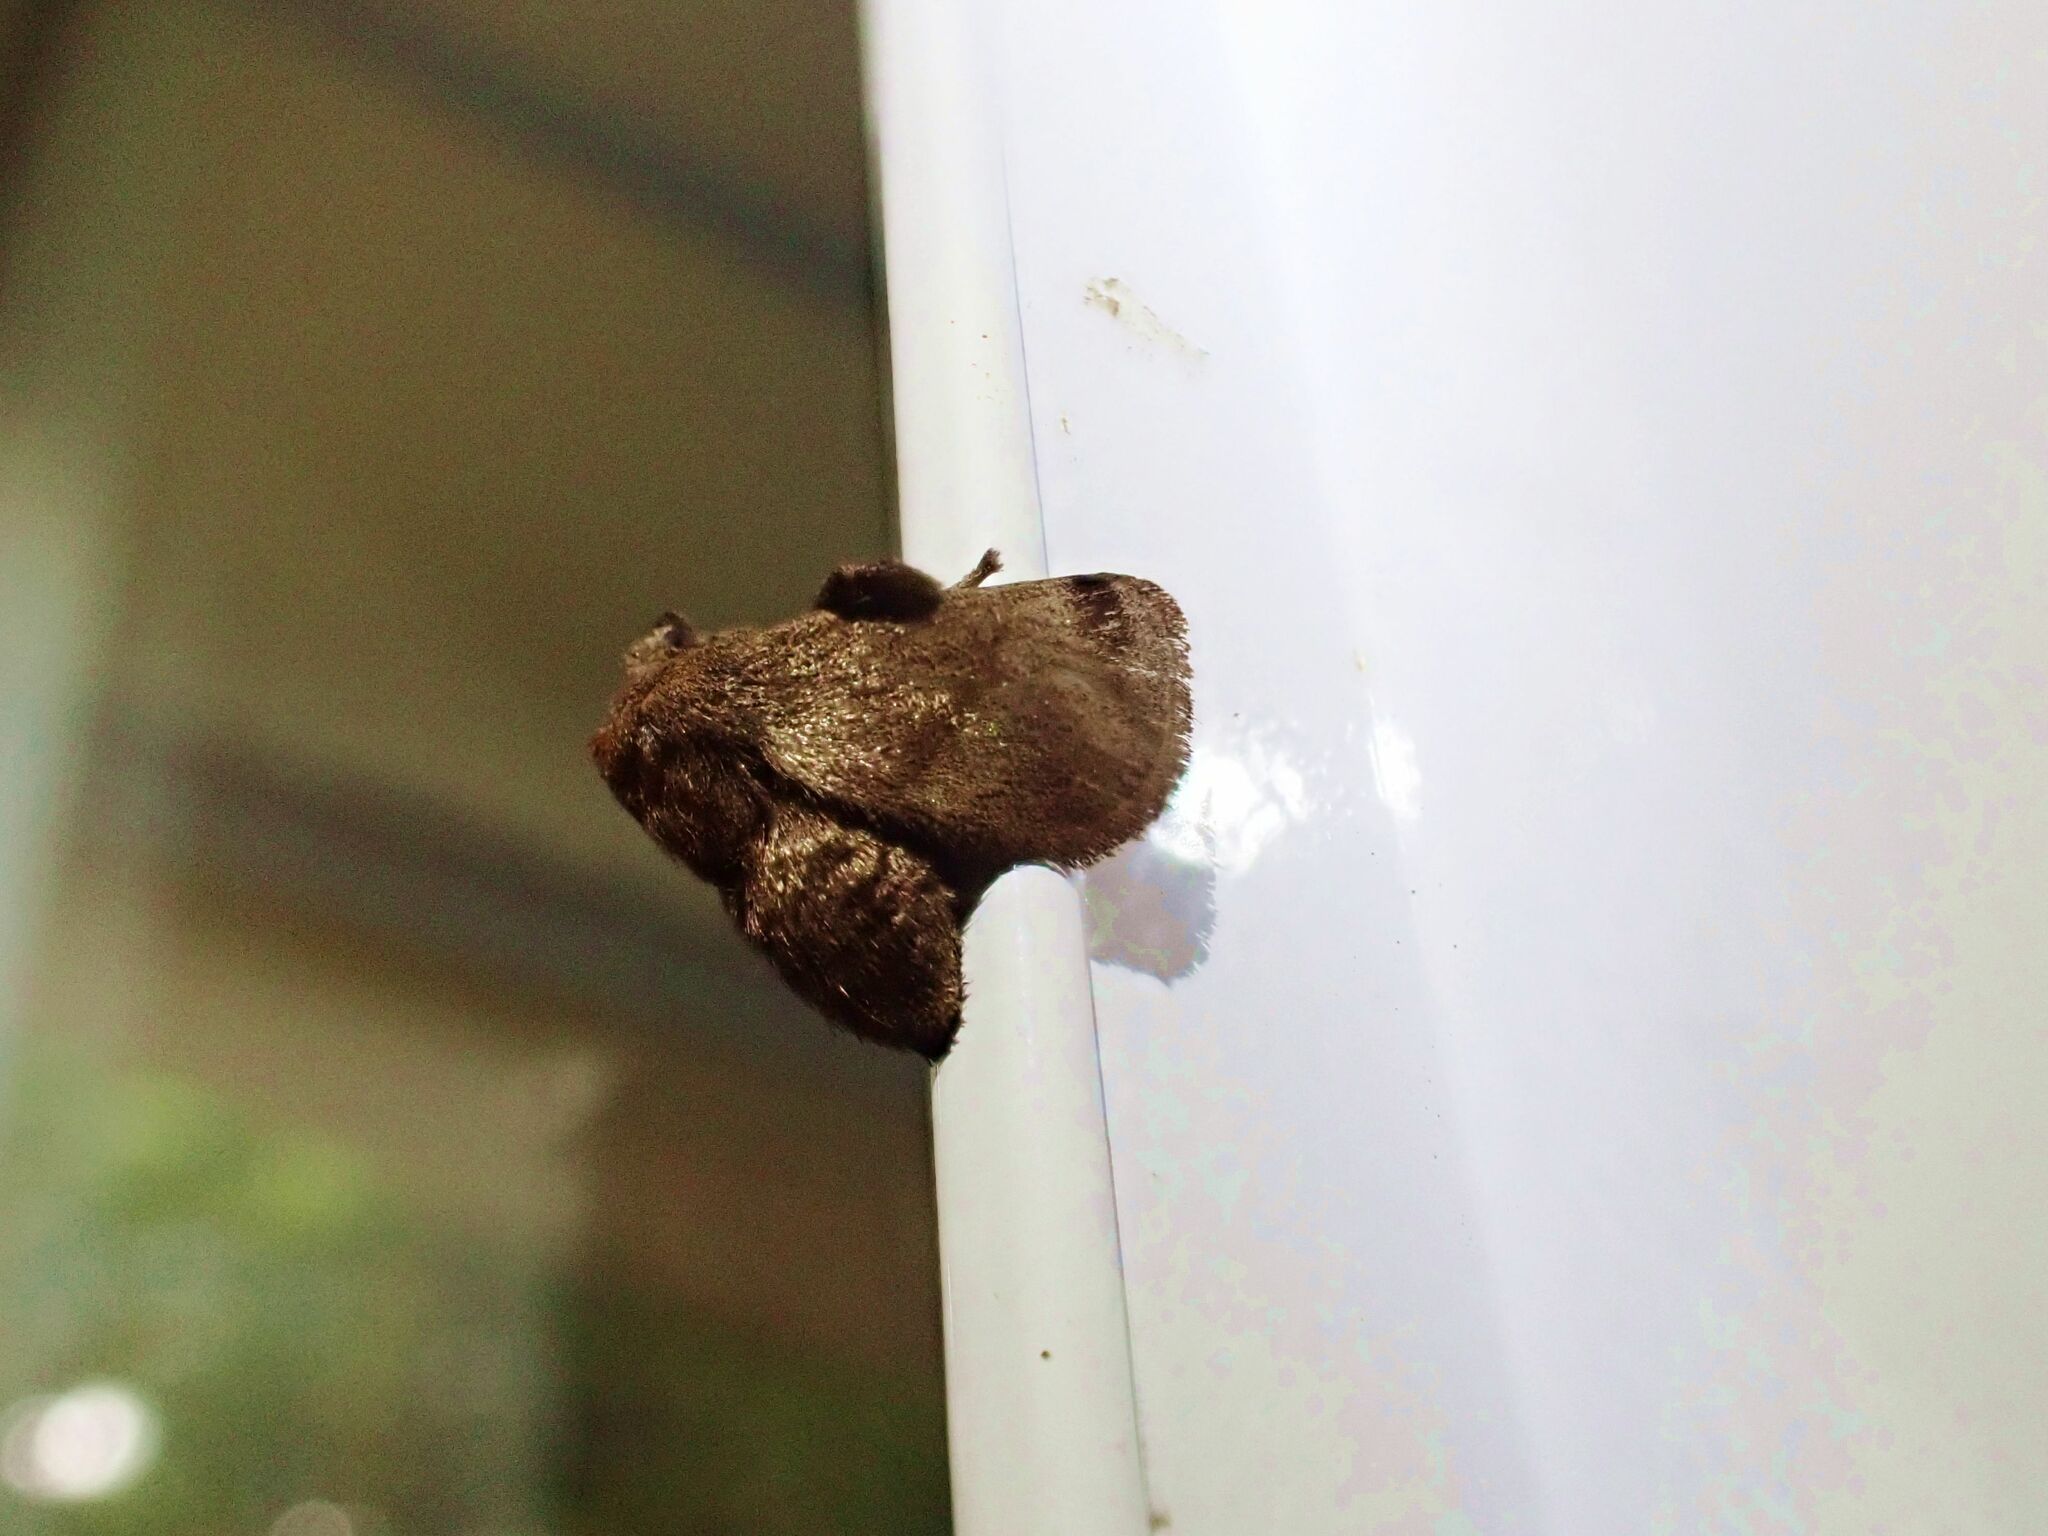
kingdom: Animalia
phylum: Arthropoda
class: Insecta
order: Lepidoptera
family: Limacodidae
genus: Birthamoides
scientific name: Birthamoides plagioscia
